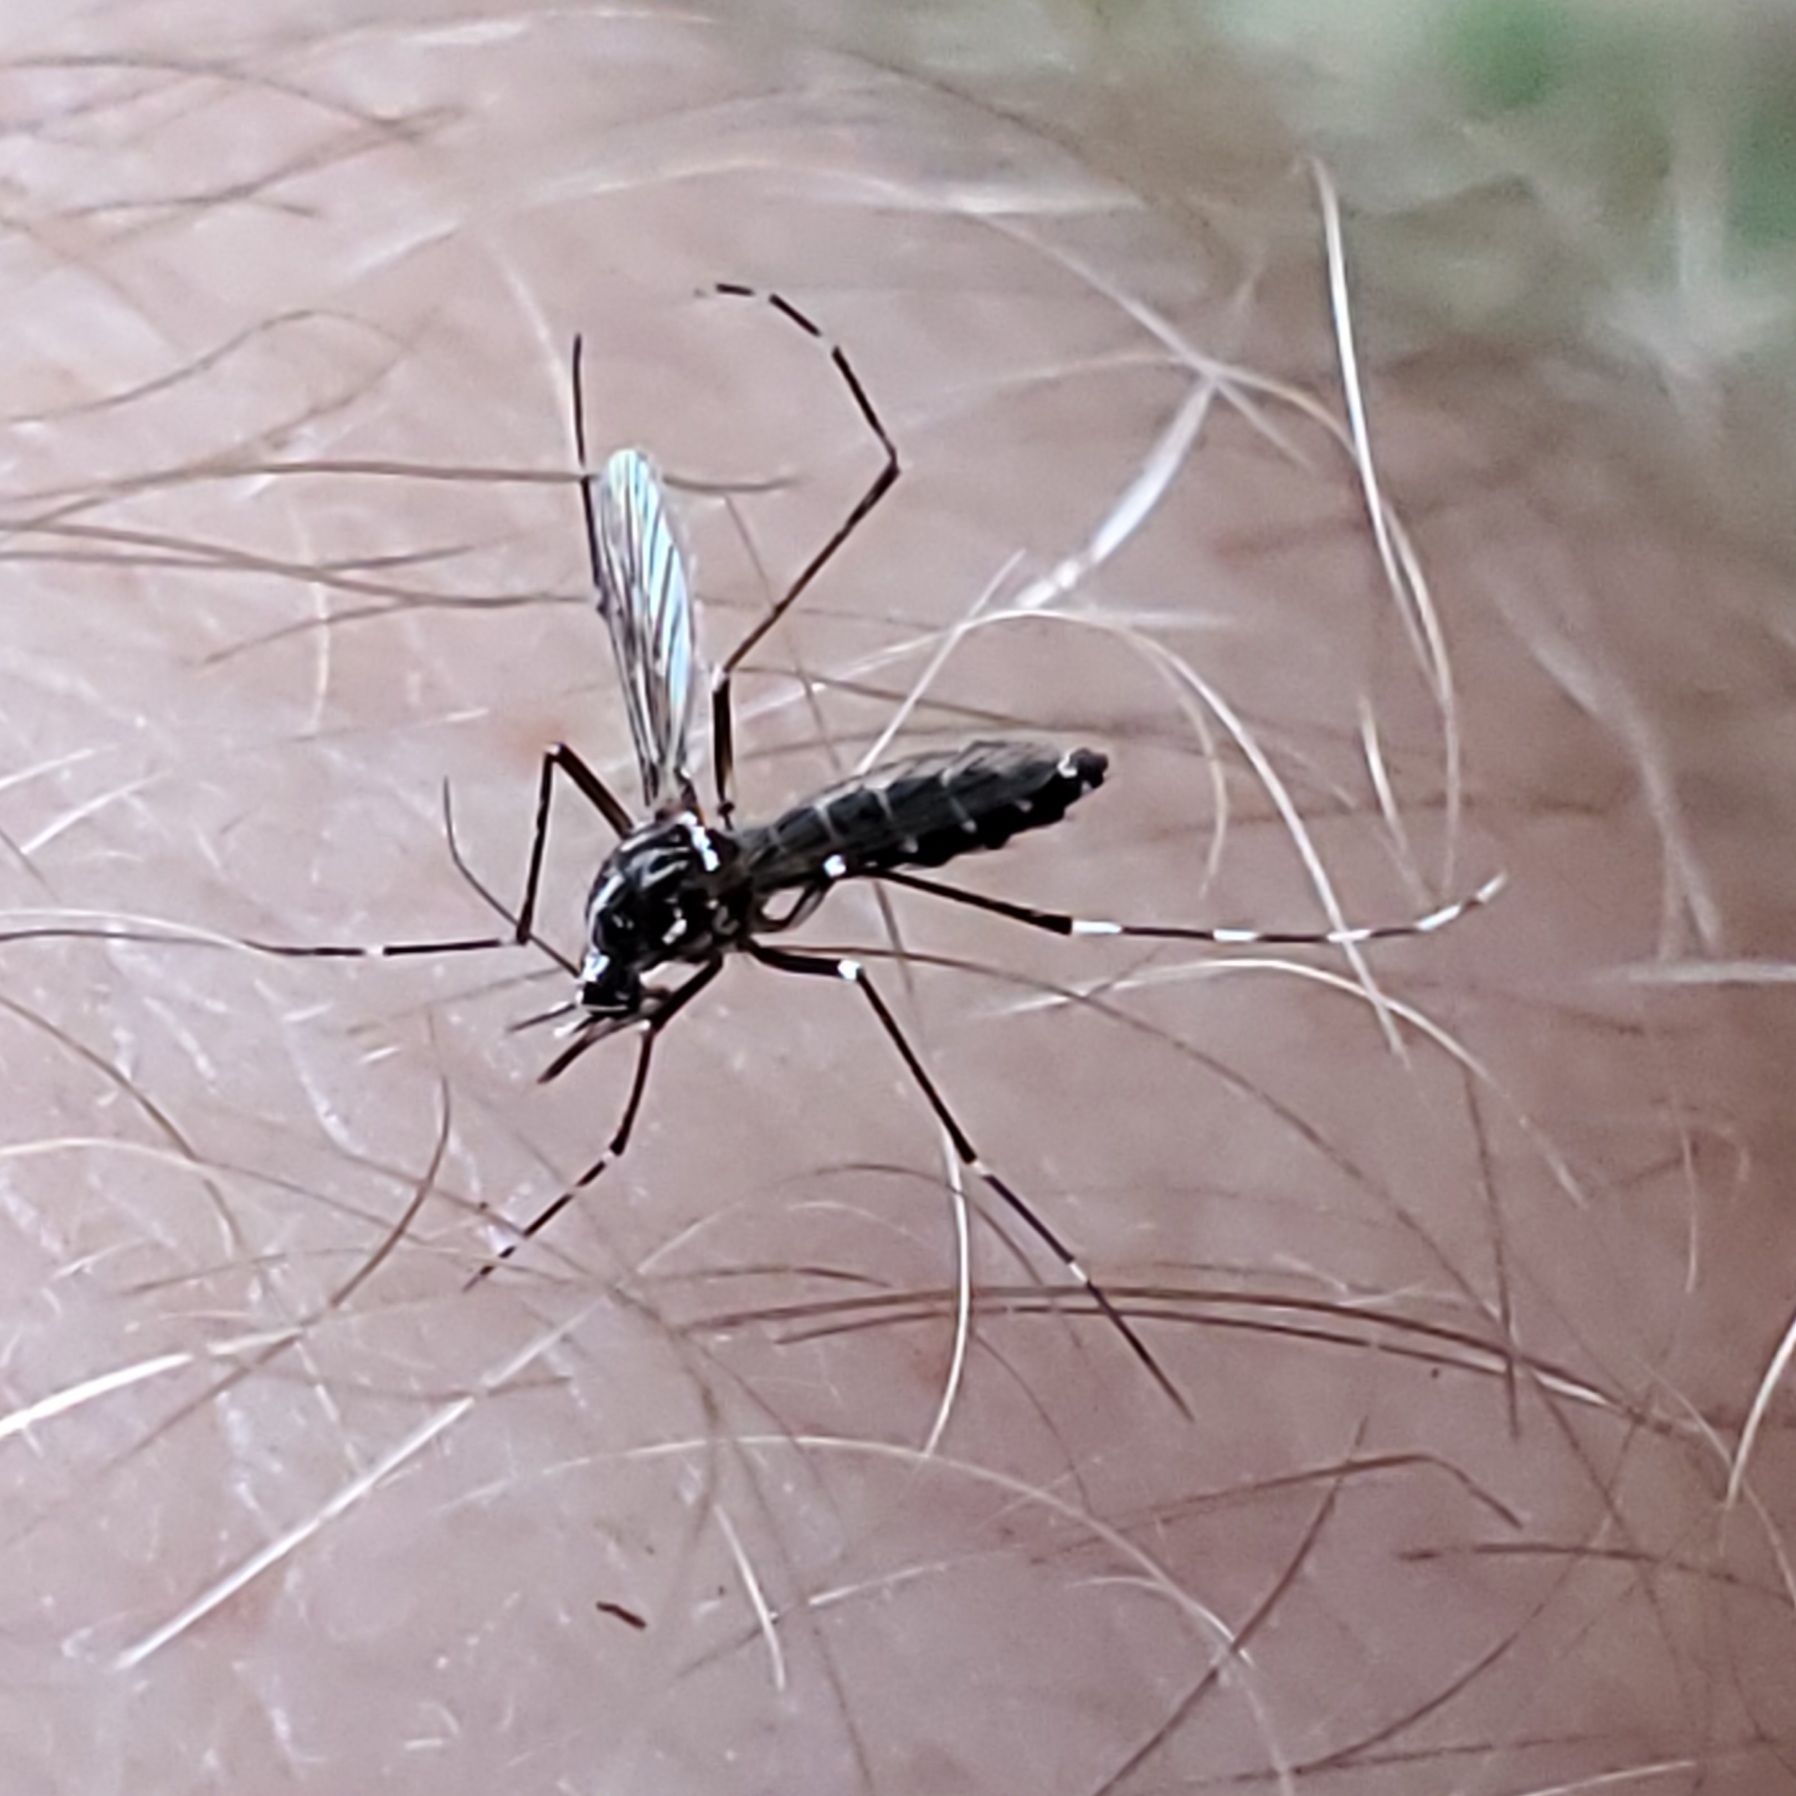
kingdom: Animalia
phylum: Arthropoda
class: Insecta
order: Diptera
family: Culicidae
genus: Aedes
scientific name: Aedes albopictus
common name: Tiger mosquito
